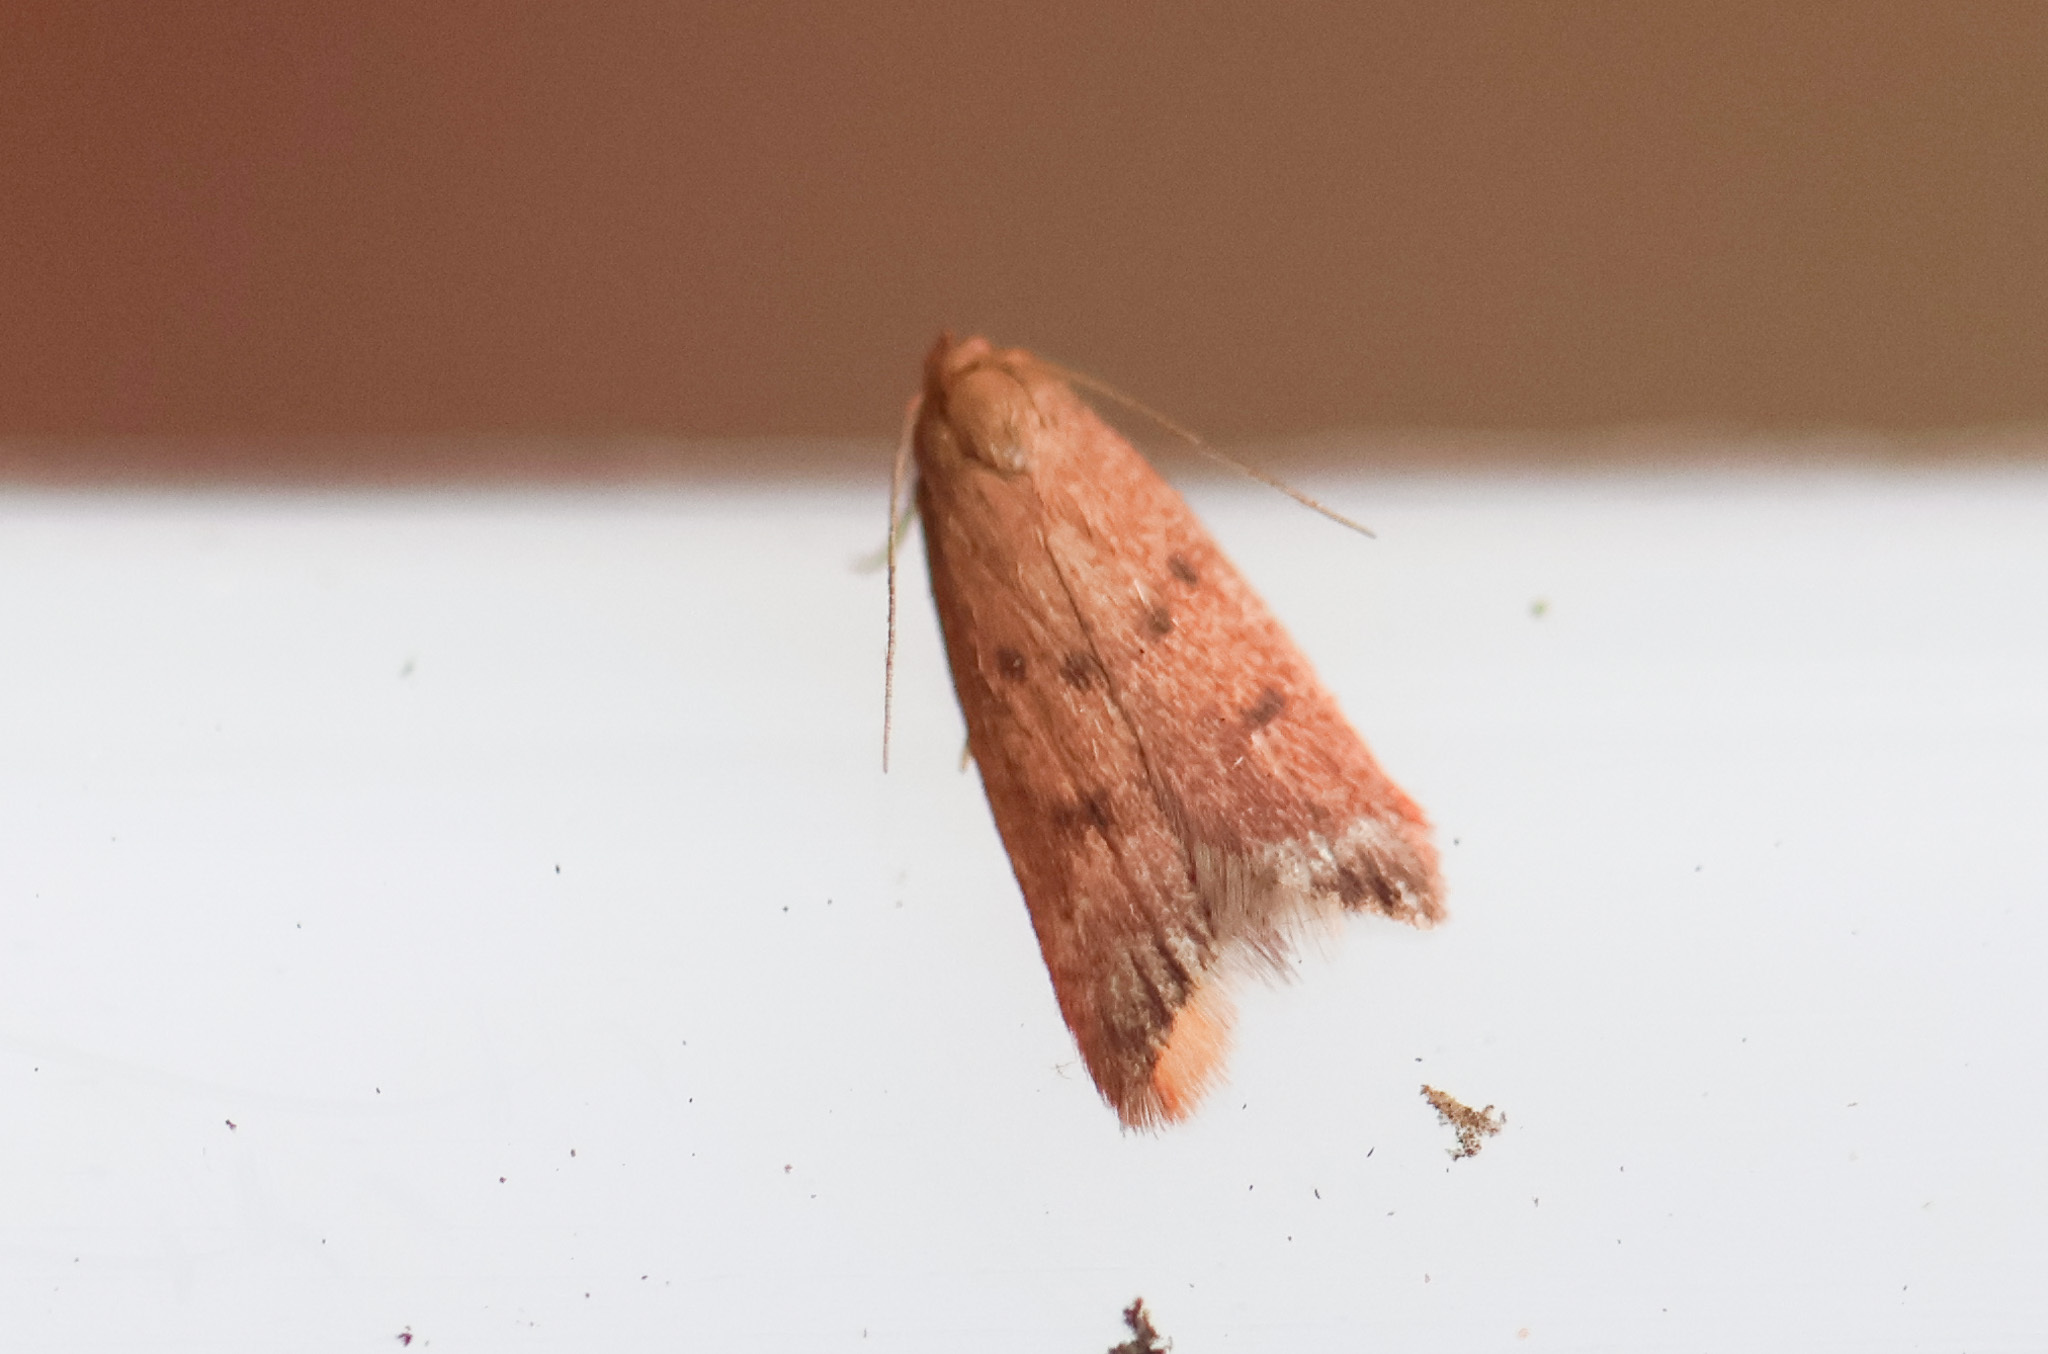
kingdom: Animalia
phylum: Arthropoda
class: Insecta
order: Lepidoptera
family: Oecophoridae
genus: Tachystola
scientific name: Tachystola acroxantha
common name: Ruddy streak
